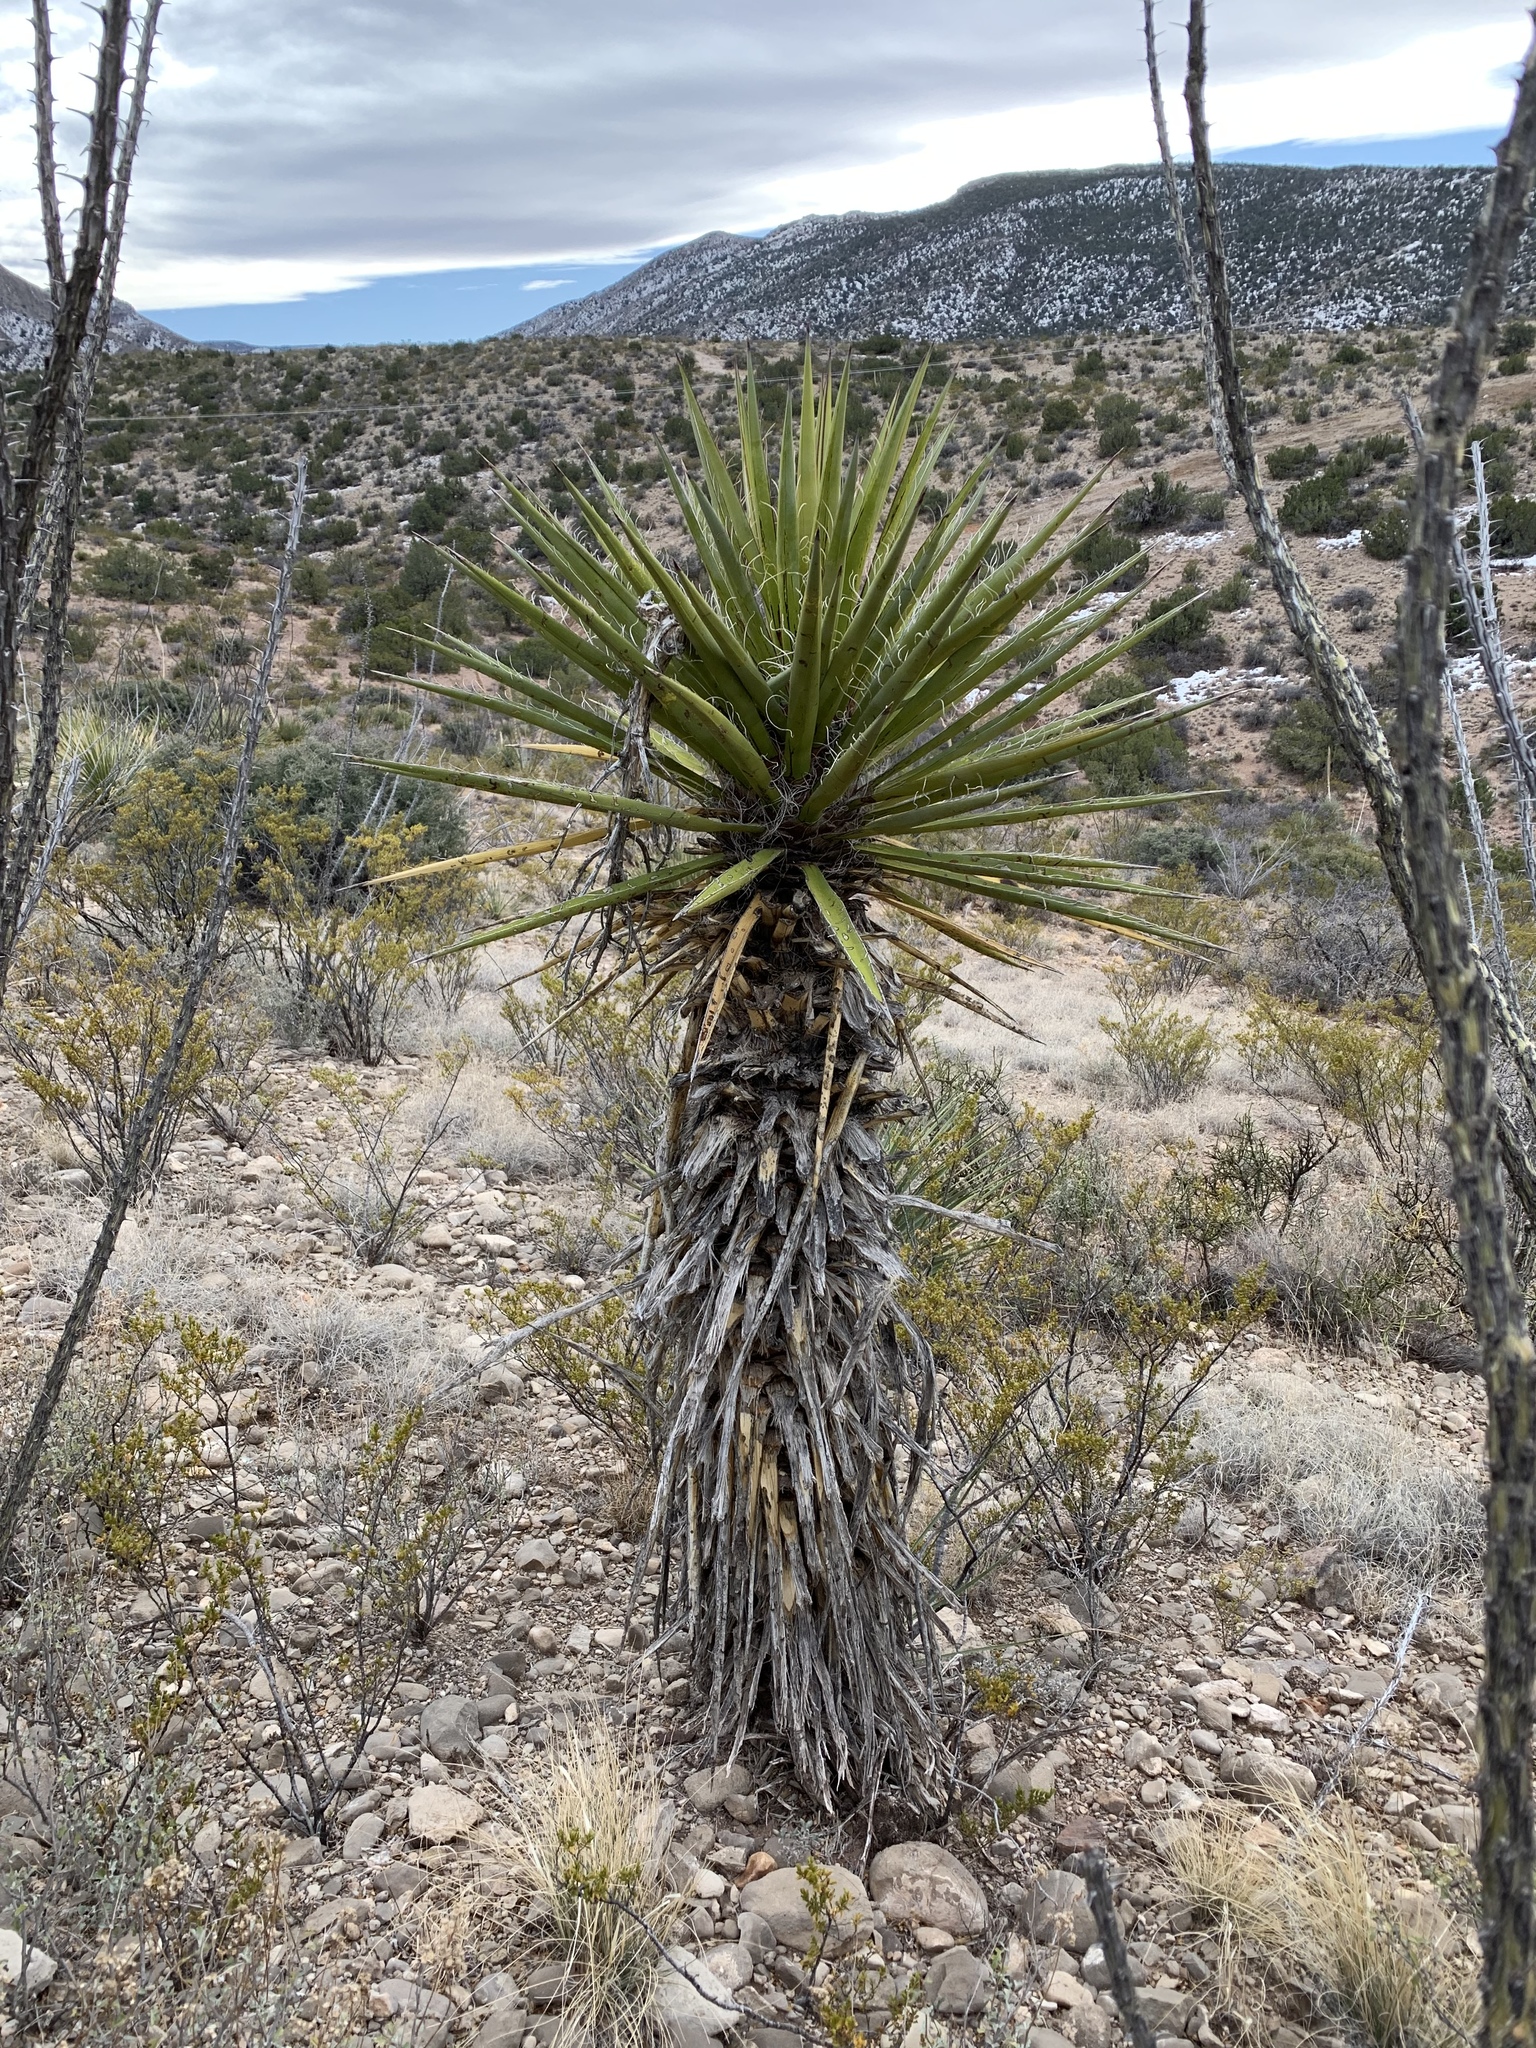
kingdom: Plantae
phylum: Tracheophyta
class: Liliopsida
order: Asparagales
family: Asparagaceae
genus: Yucca
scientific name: Yucca treculiana
